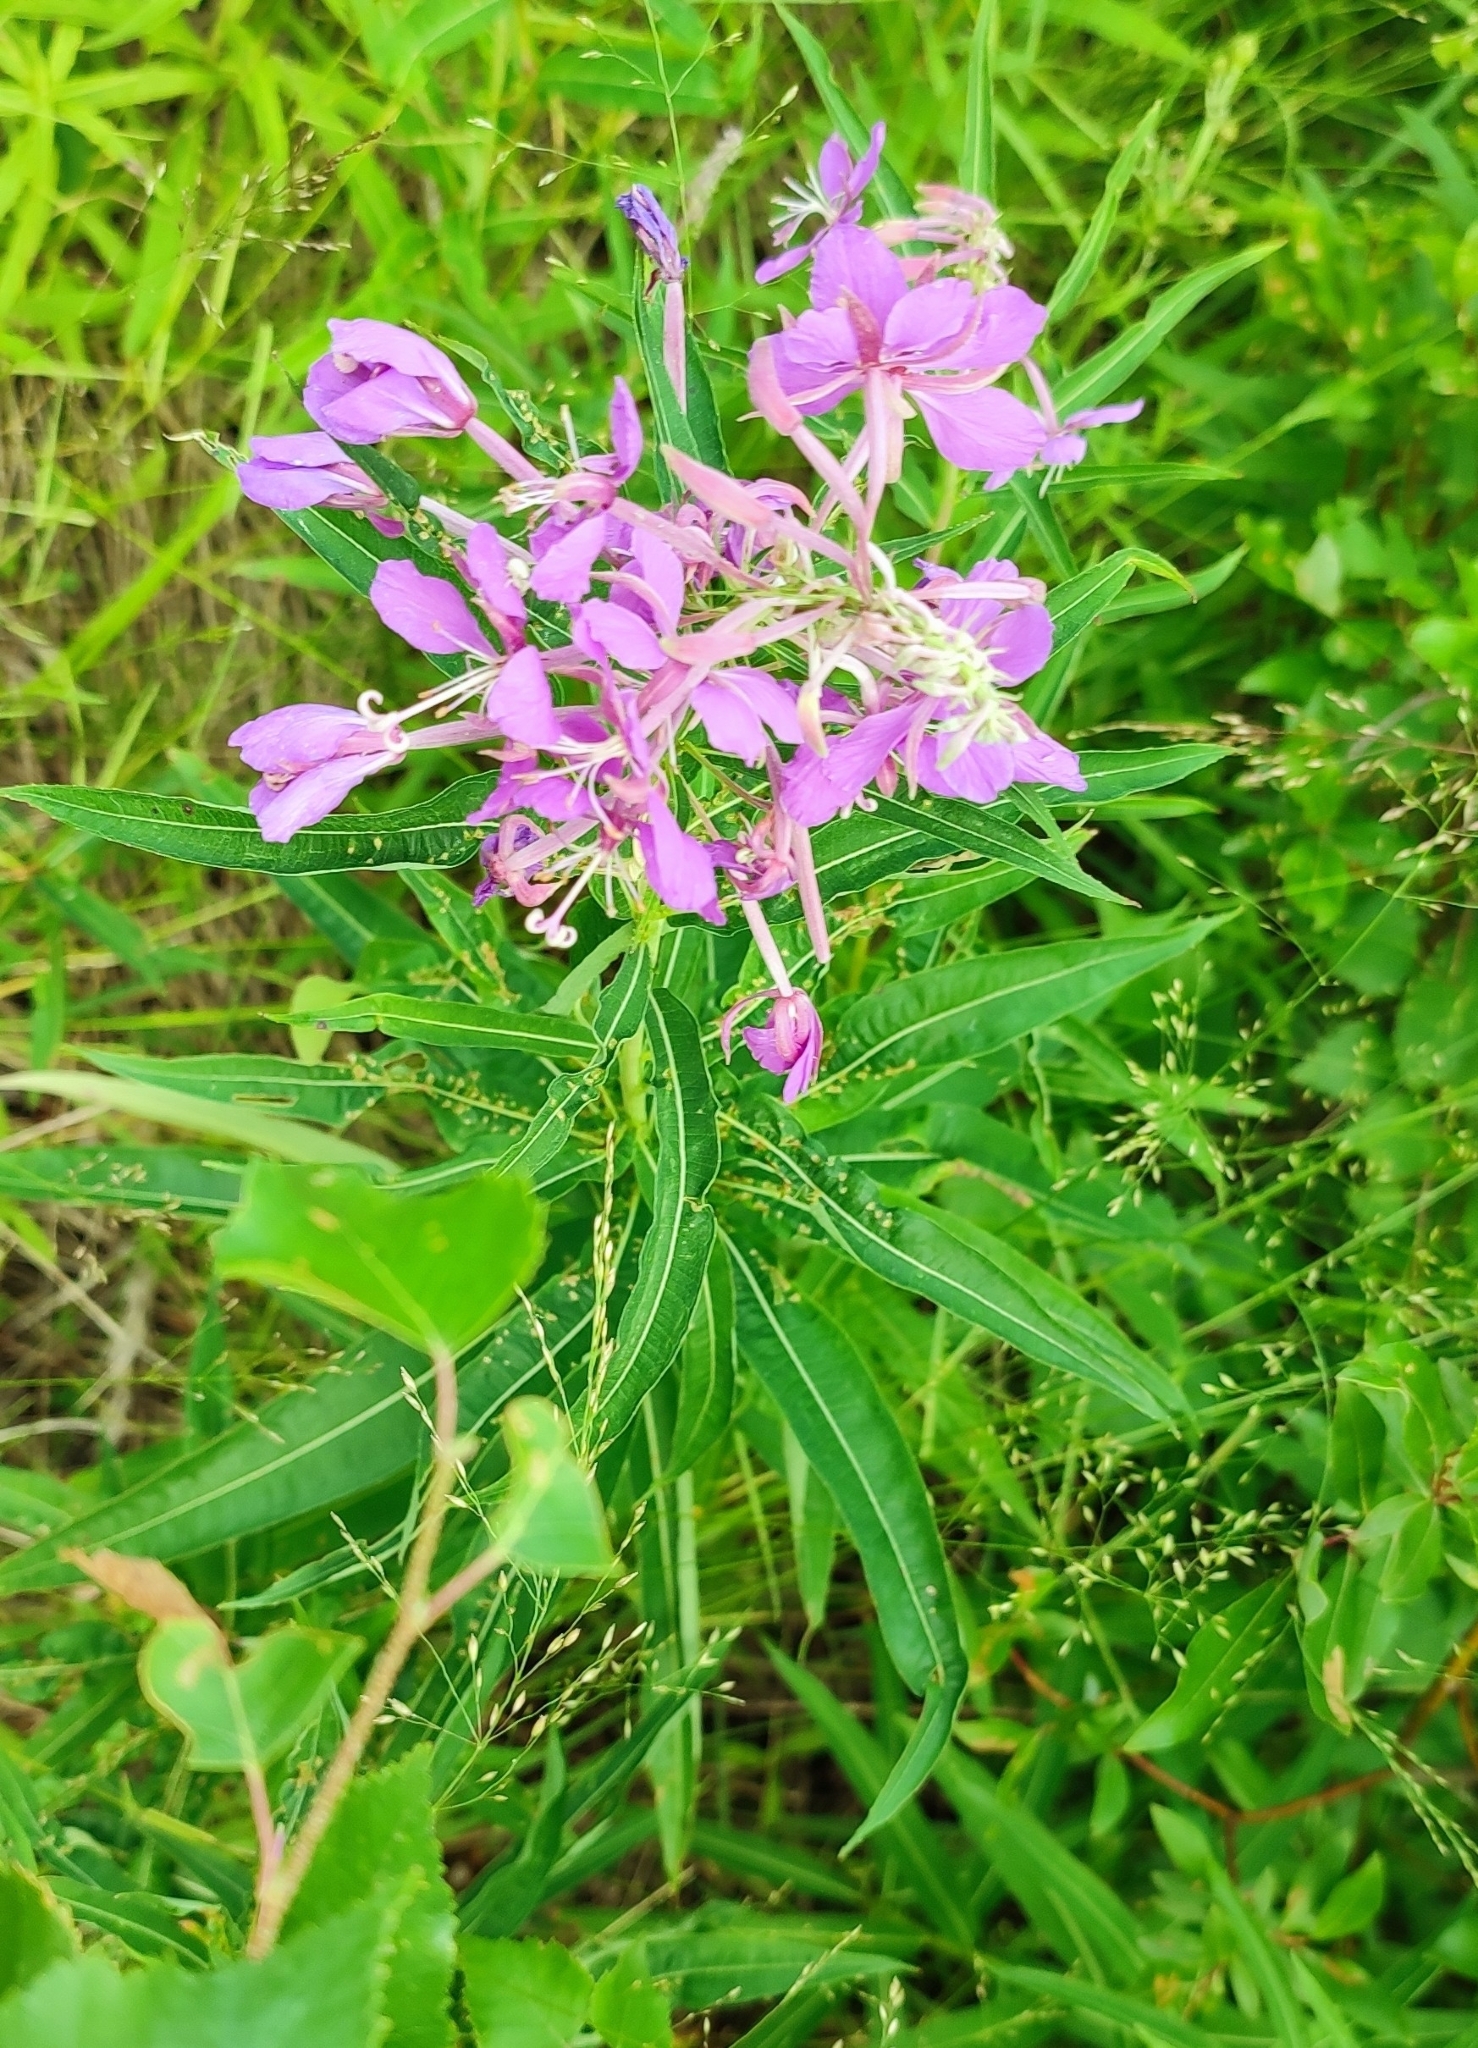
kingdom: Plantae
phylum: Tracheophyta
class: Magnoliopsida
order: Myrtales
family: Onagraceae
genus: Chamaenerion
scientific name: Chamaenerion angustifolium
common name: Fireweed
